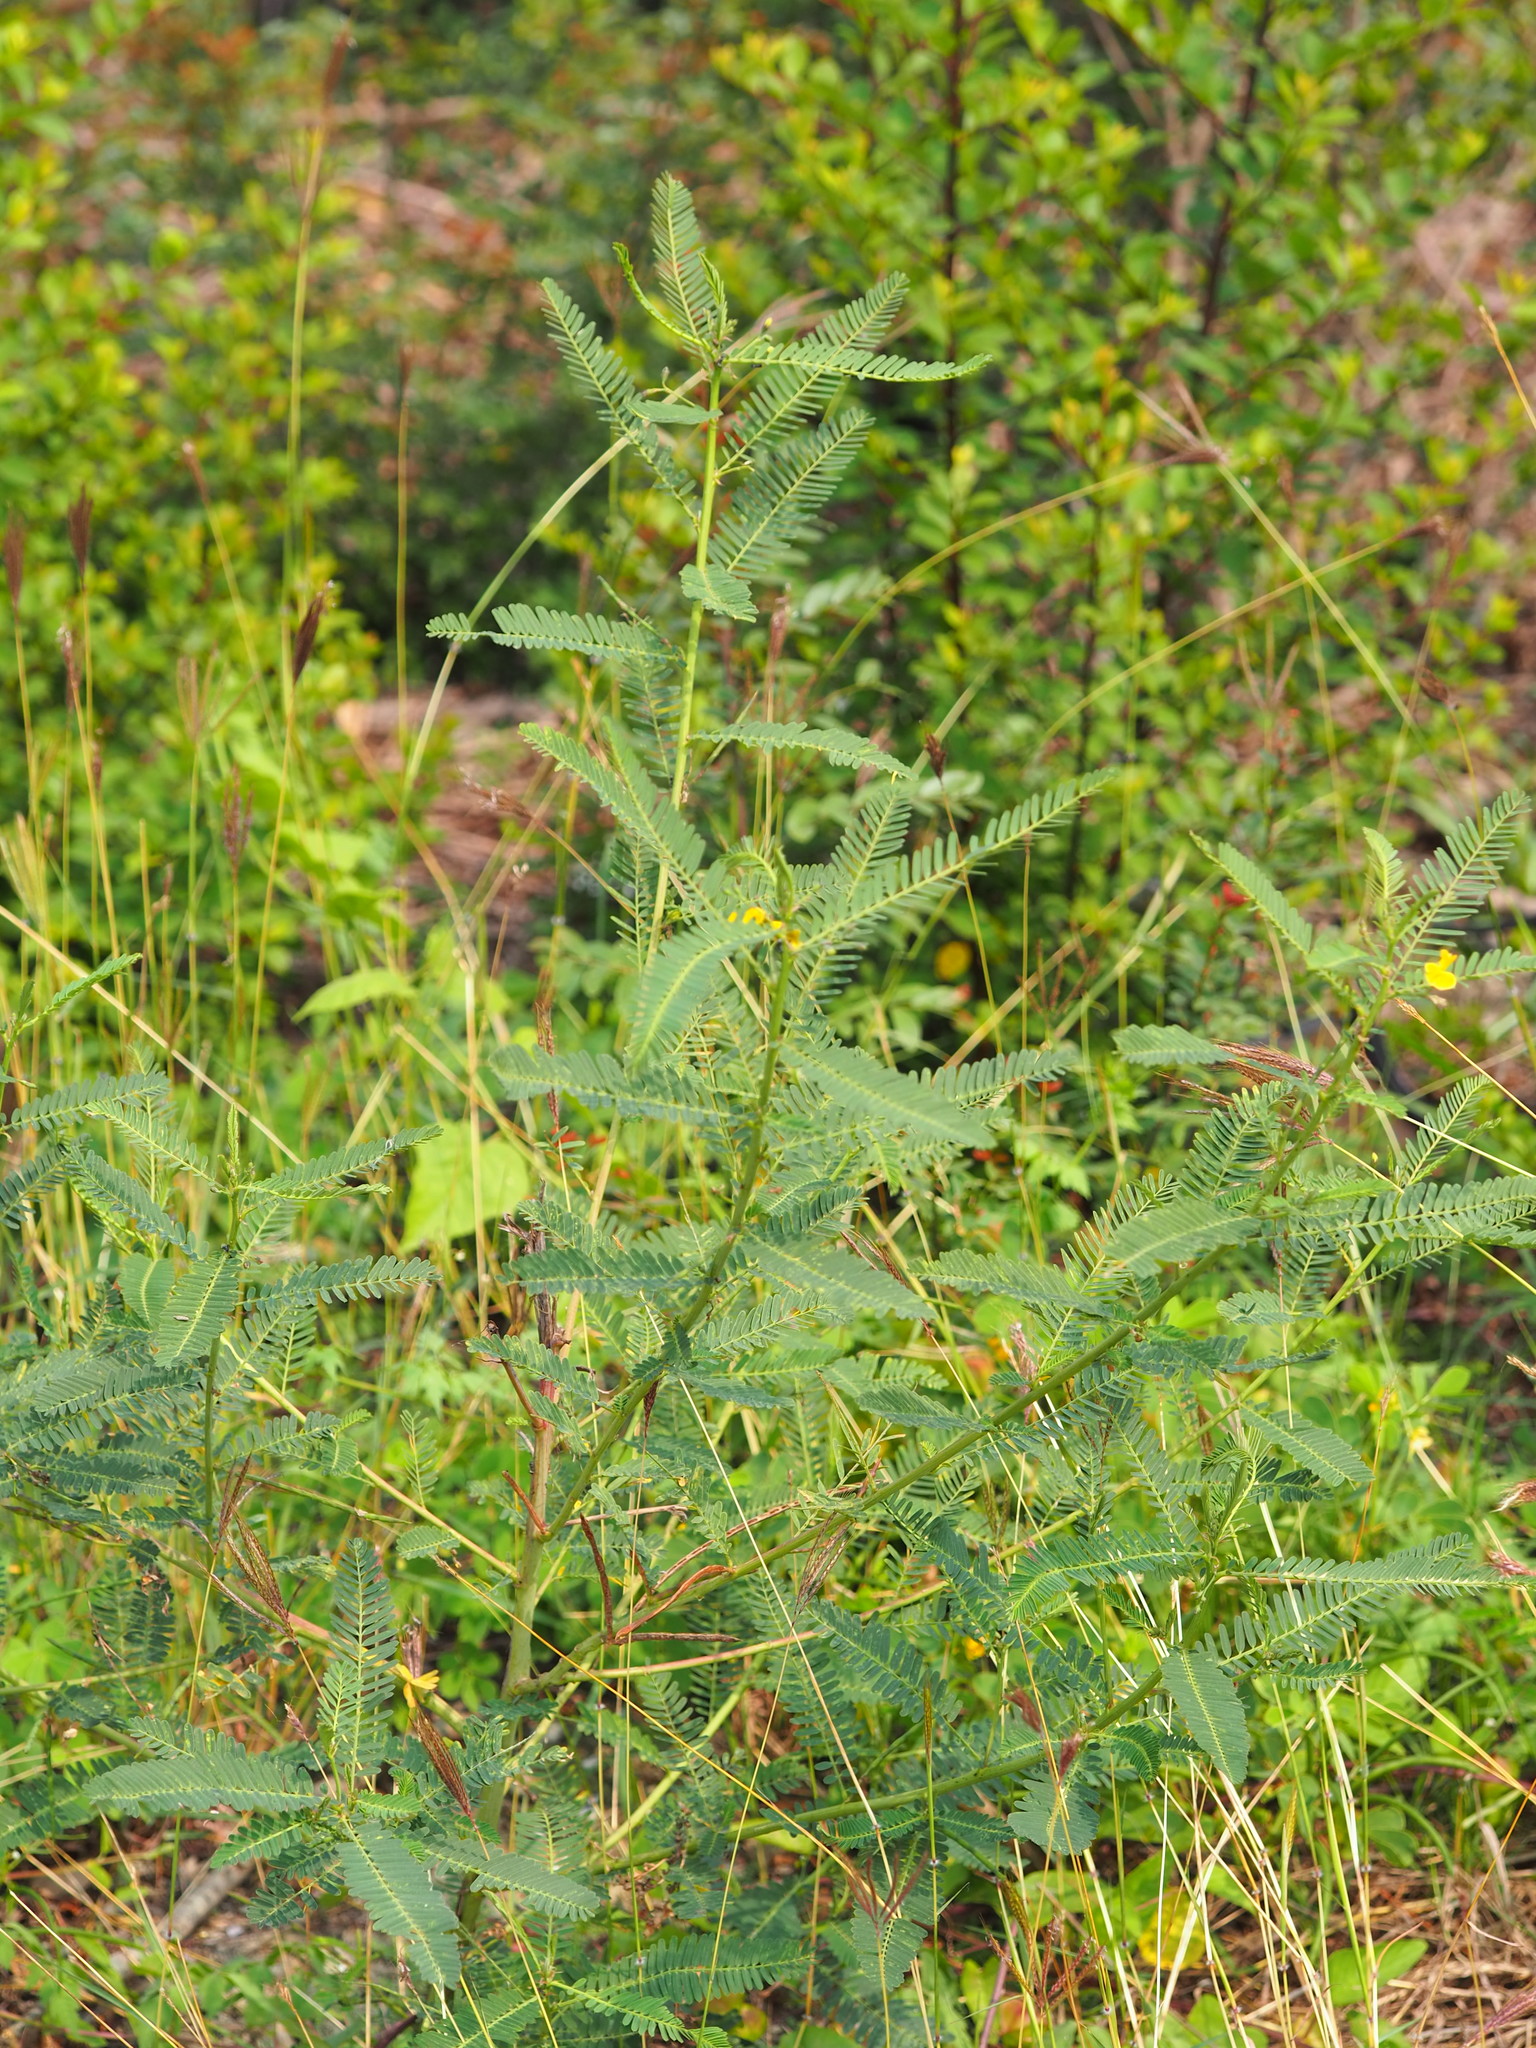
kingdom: Plantae
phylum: Tracheophyta
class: Magnoliopsida
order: Fabales
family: Fabaceae
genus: Sesbania
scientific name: Sesbania cannabina
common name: Canicha
